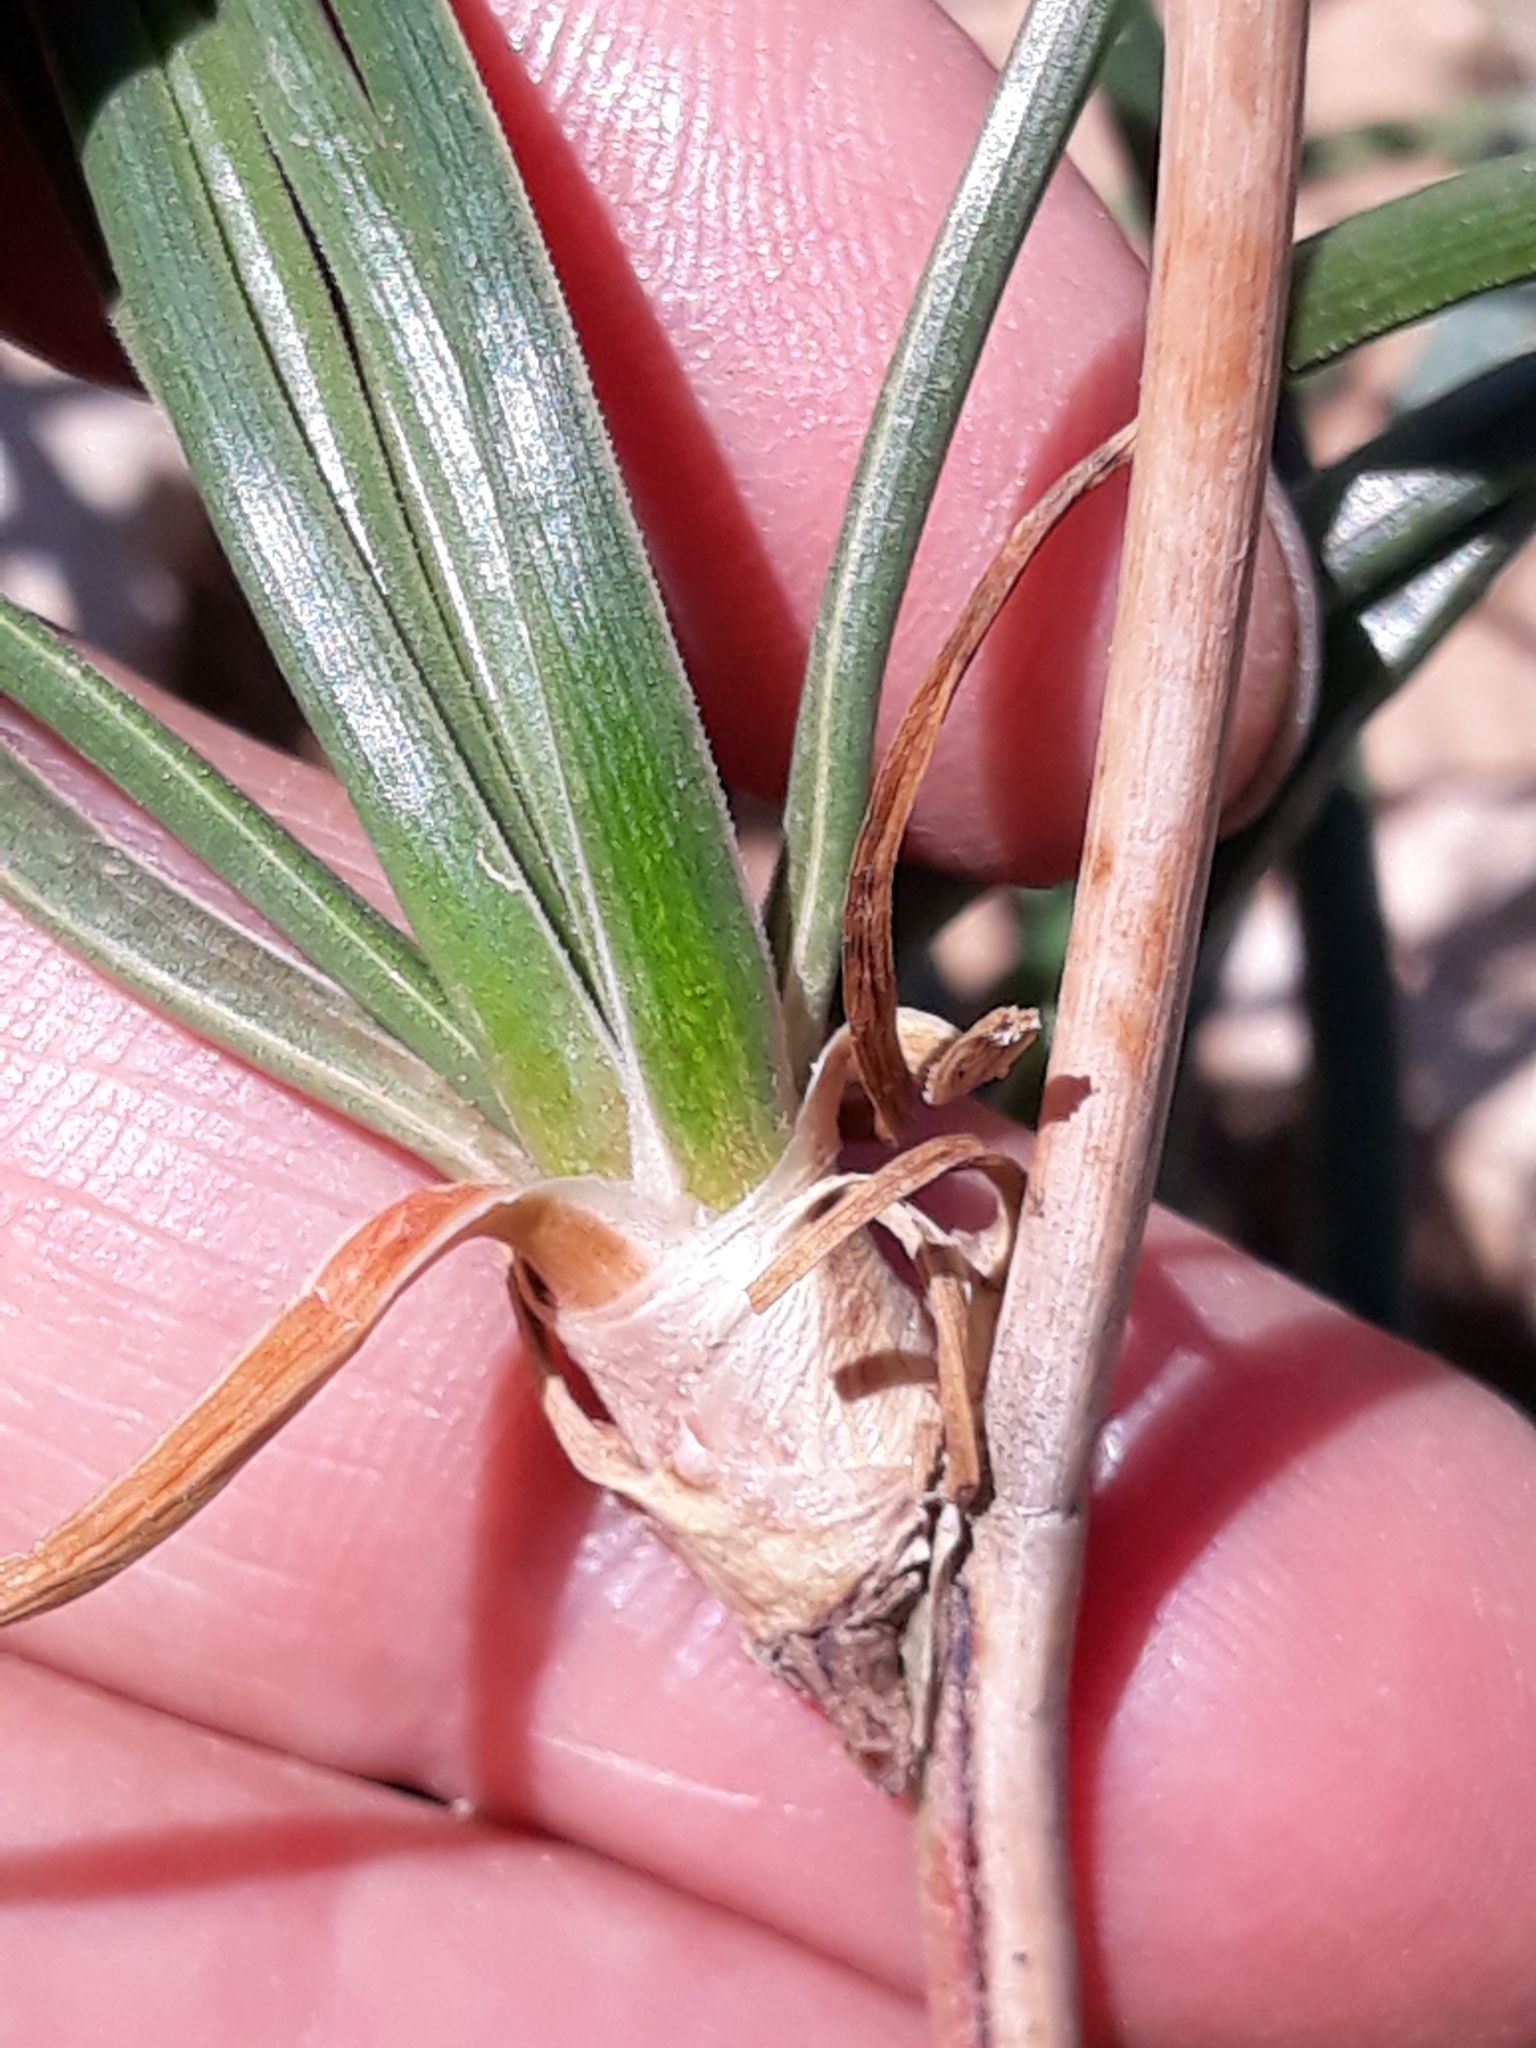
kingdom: Plantae
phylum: Tracheophyta
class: Liliopsida
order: Asparagales
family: Asphodelaceae
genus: Asphodelus
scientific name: Asphodelus fistulosus
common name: Onionweed
